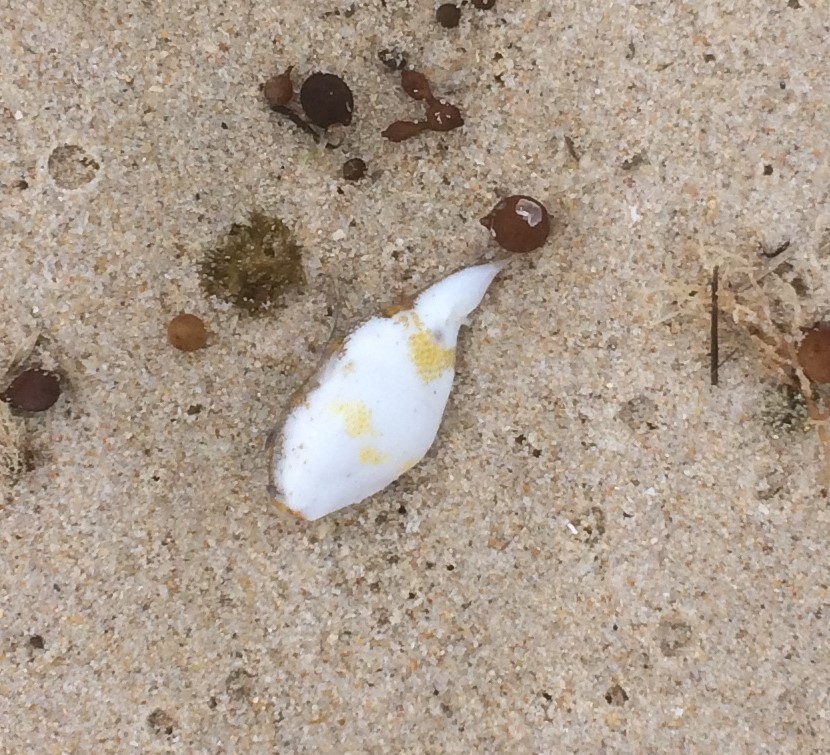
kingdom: Animalia
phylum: Chordata
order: Tetraodontiformes
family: Tetraodontidae
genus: Polyspina
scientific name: Polyspina piosae
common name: Orange-barred pufferfish
